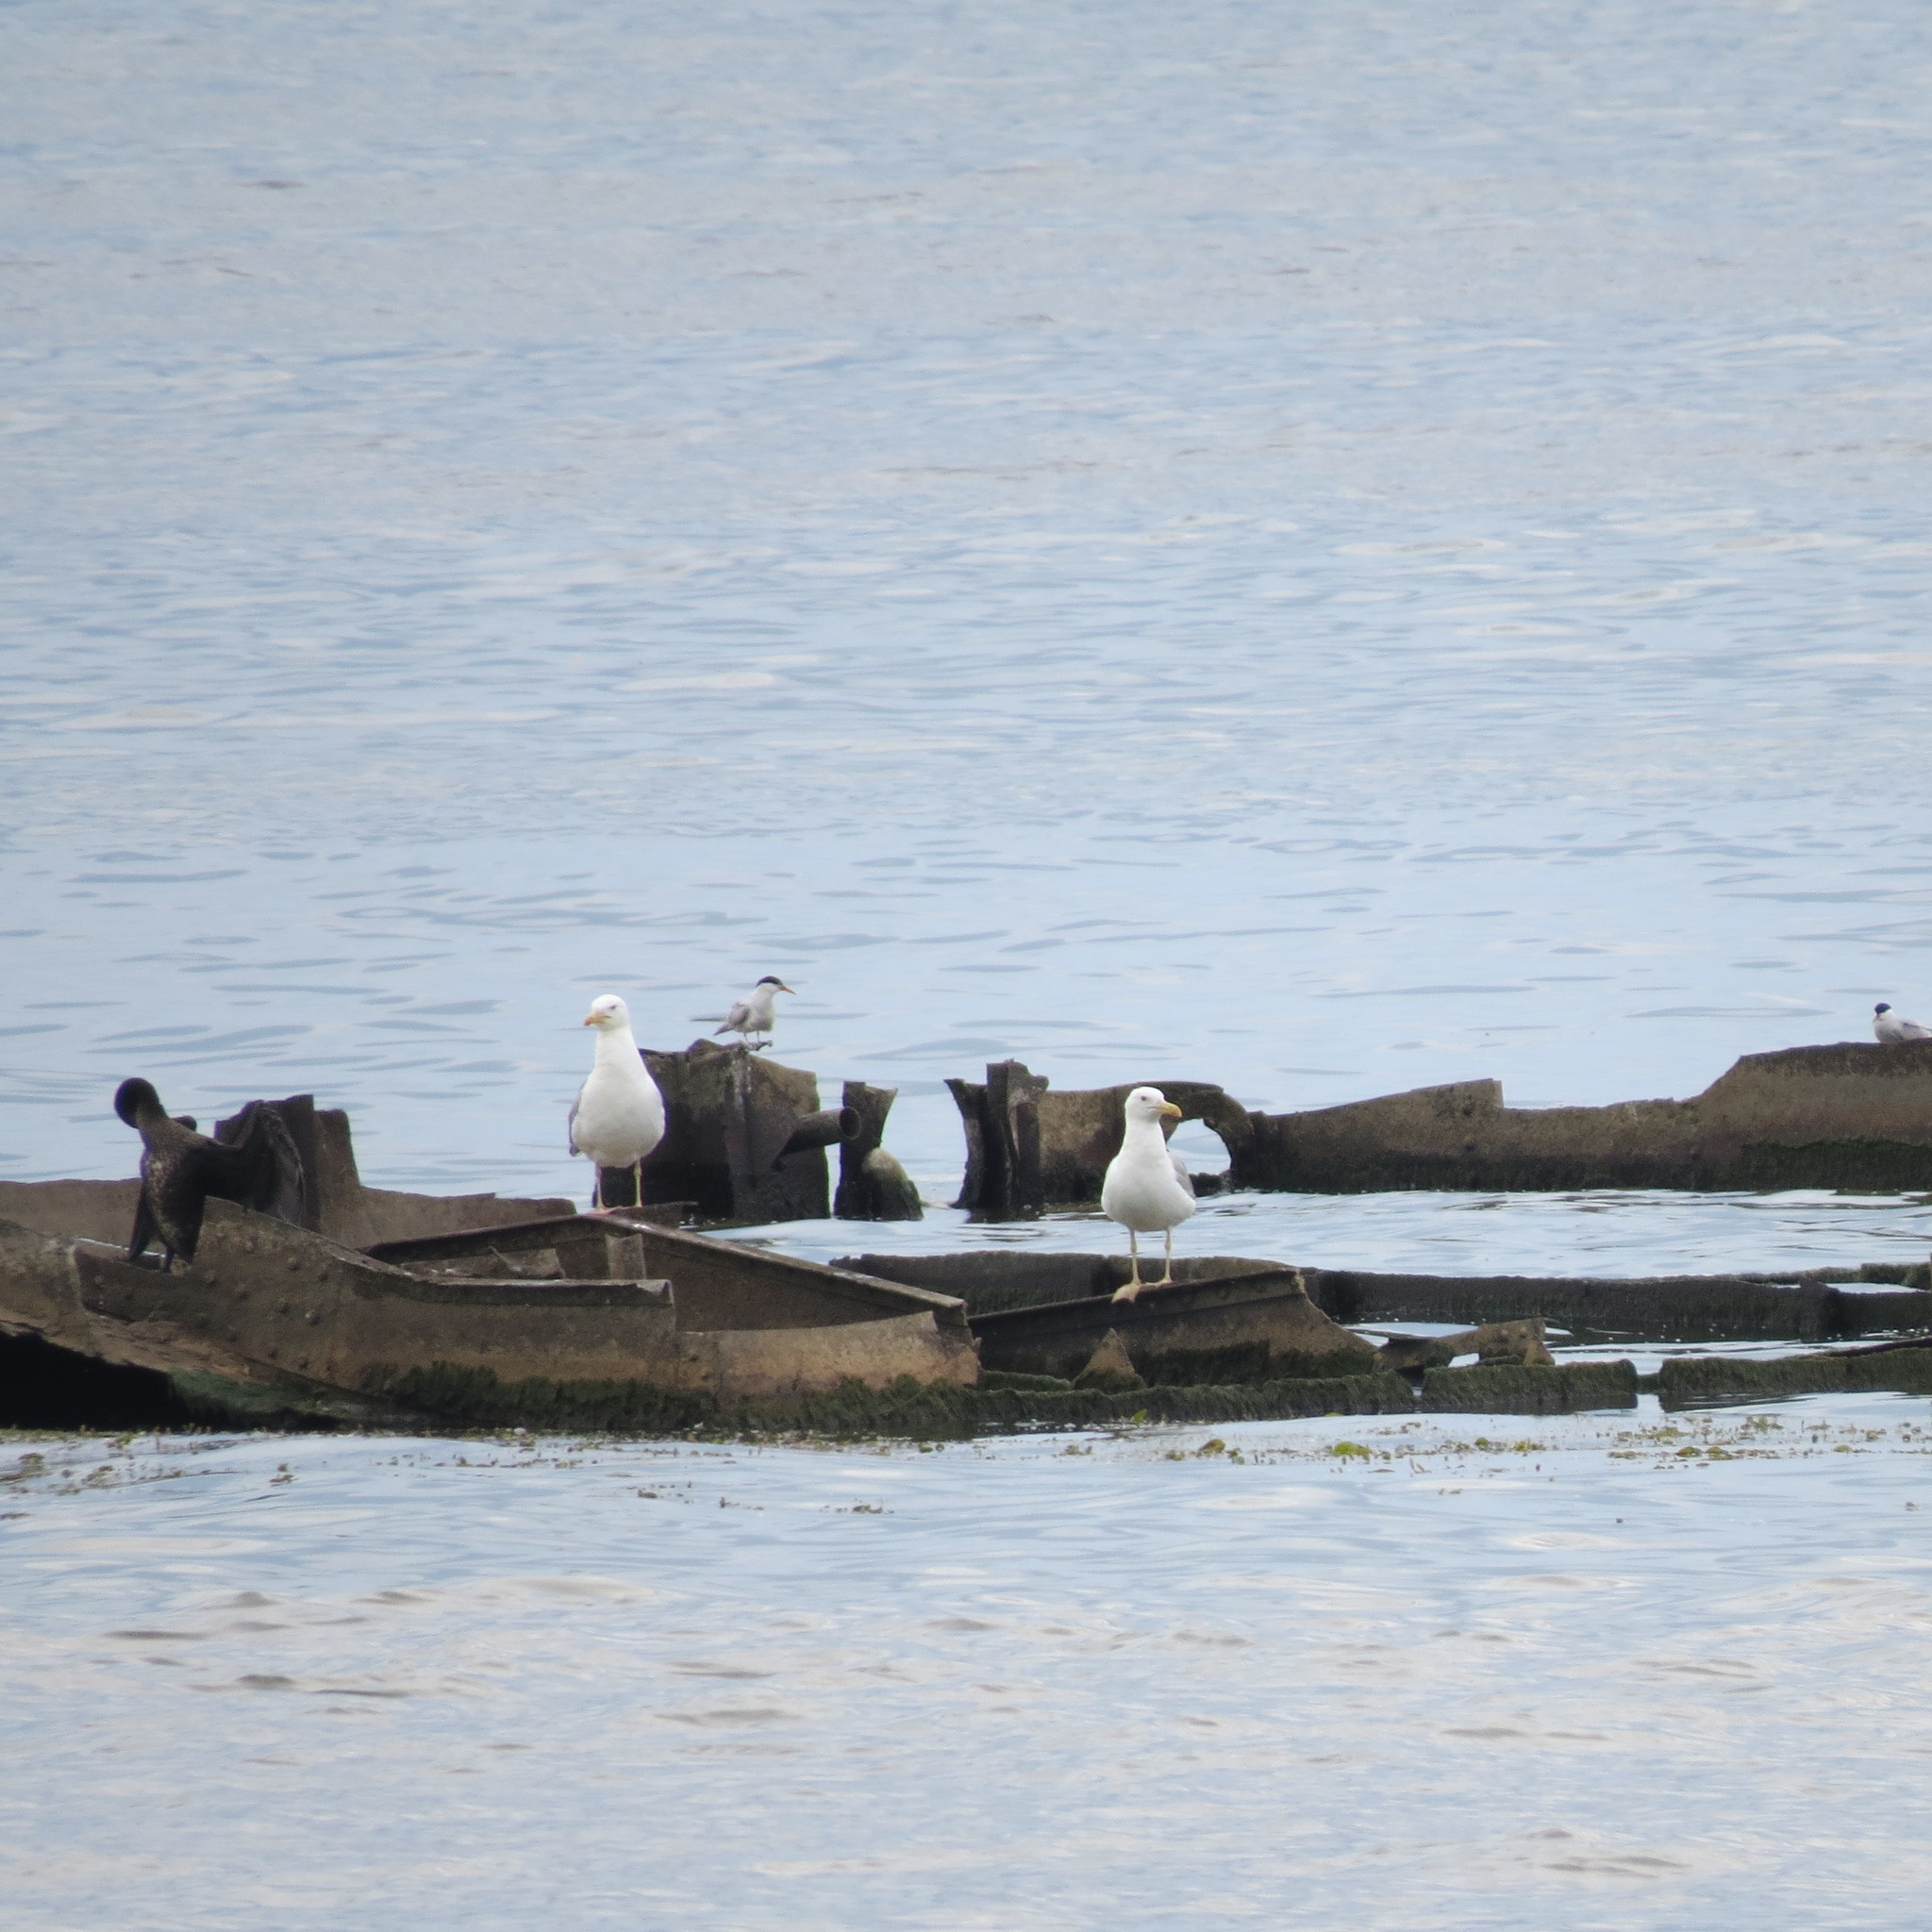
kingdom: Animalia
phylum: Chordata
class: Aves
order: Charadriiformes
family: Laridae
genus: Larus
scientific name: Larus cachinnans
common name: Caspian gull
